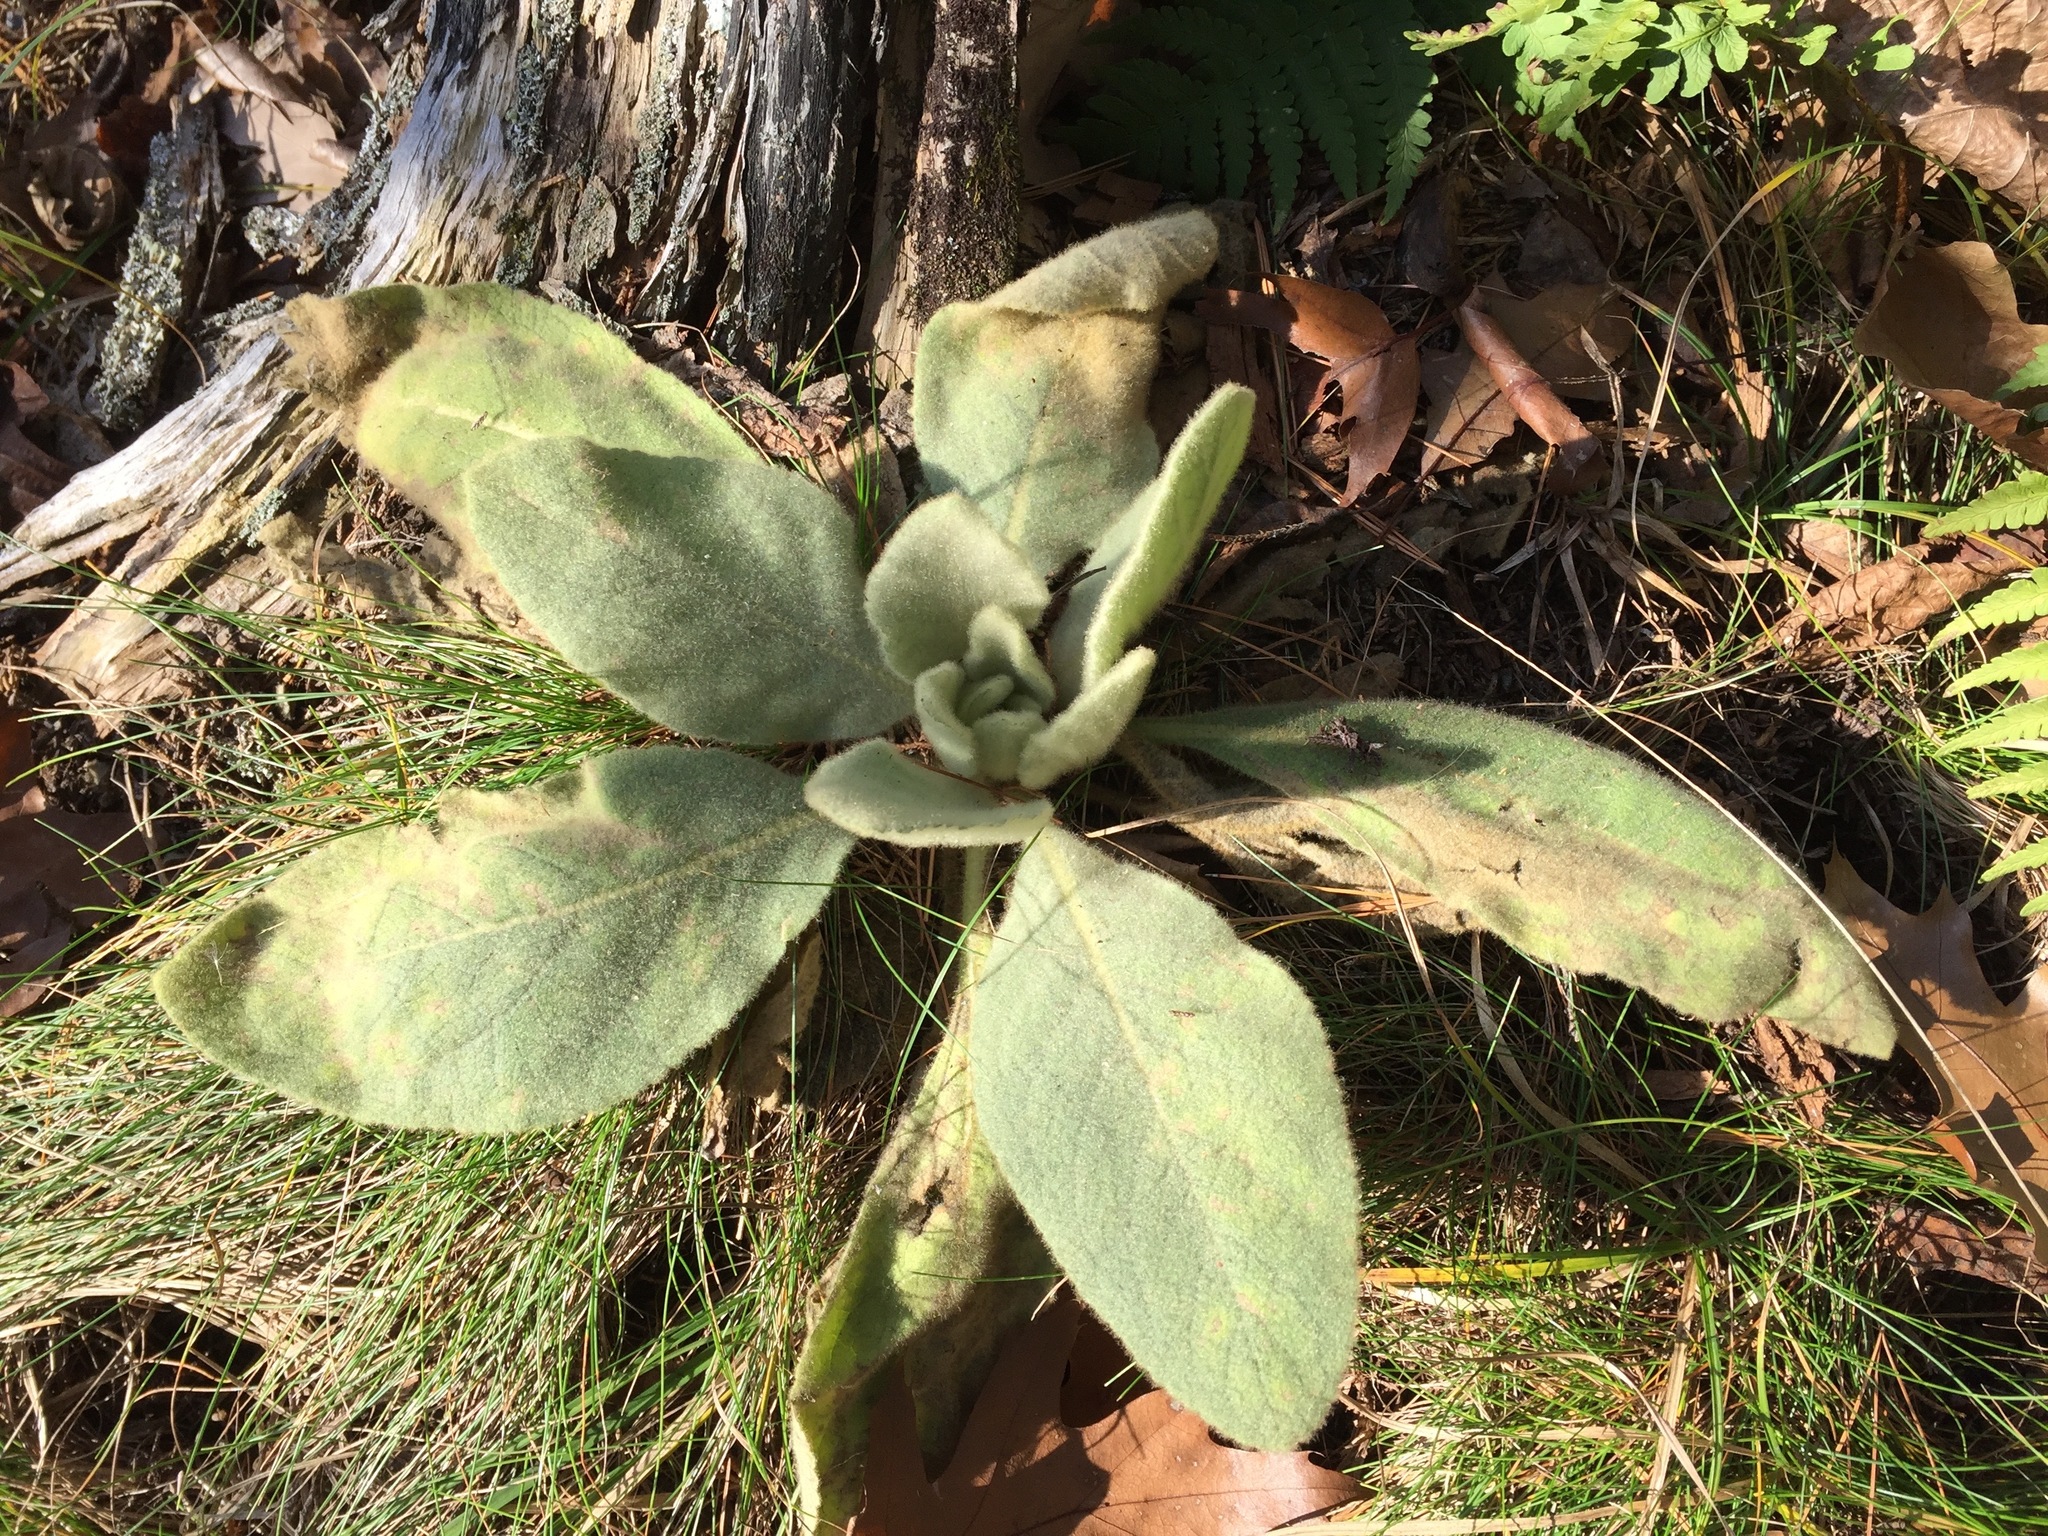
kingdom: Plantae
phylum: Tracheophyta
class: Magnoliopsida
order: Lamiales
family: Scrophulariaceae
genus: Verbascum
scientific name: Verbascum thapsus
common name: Common mullein
